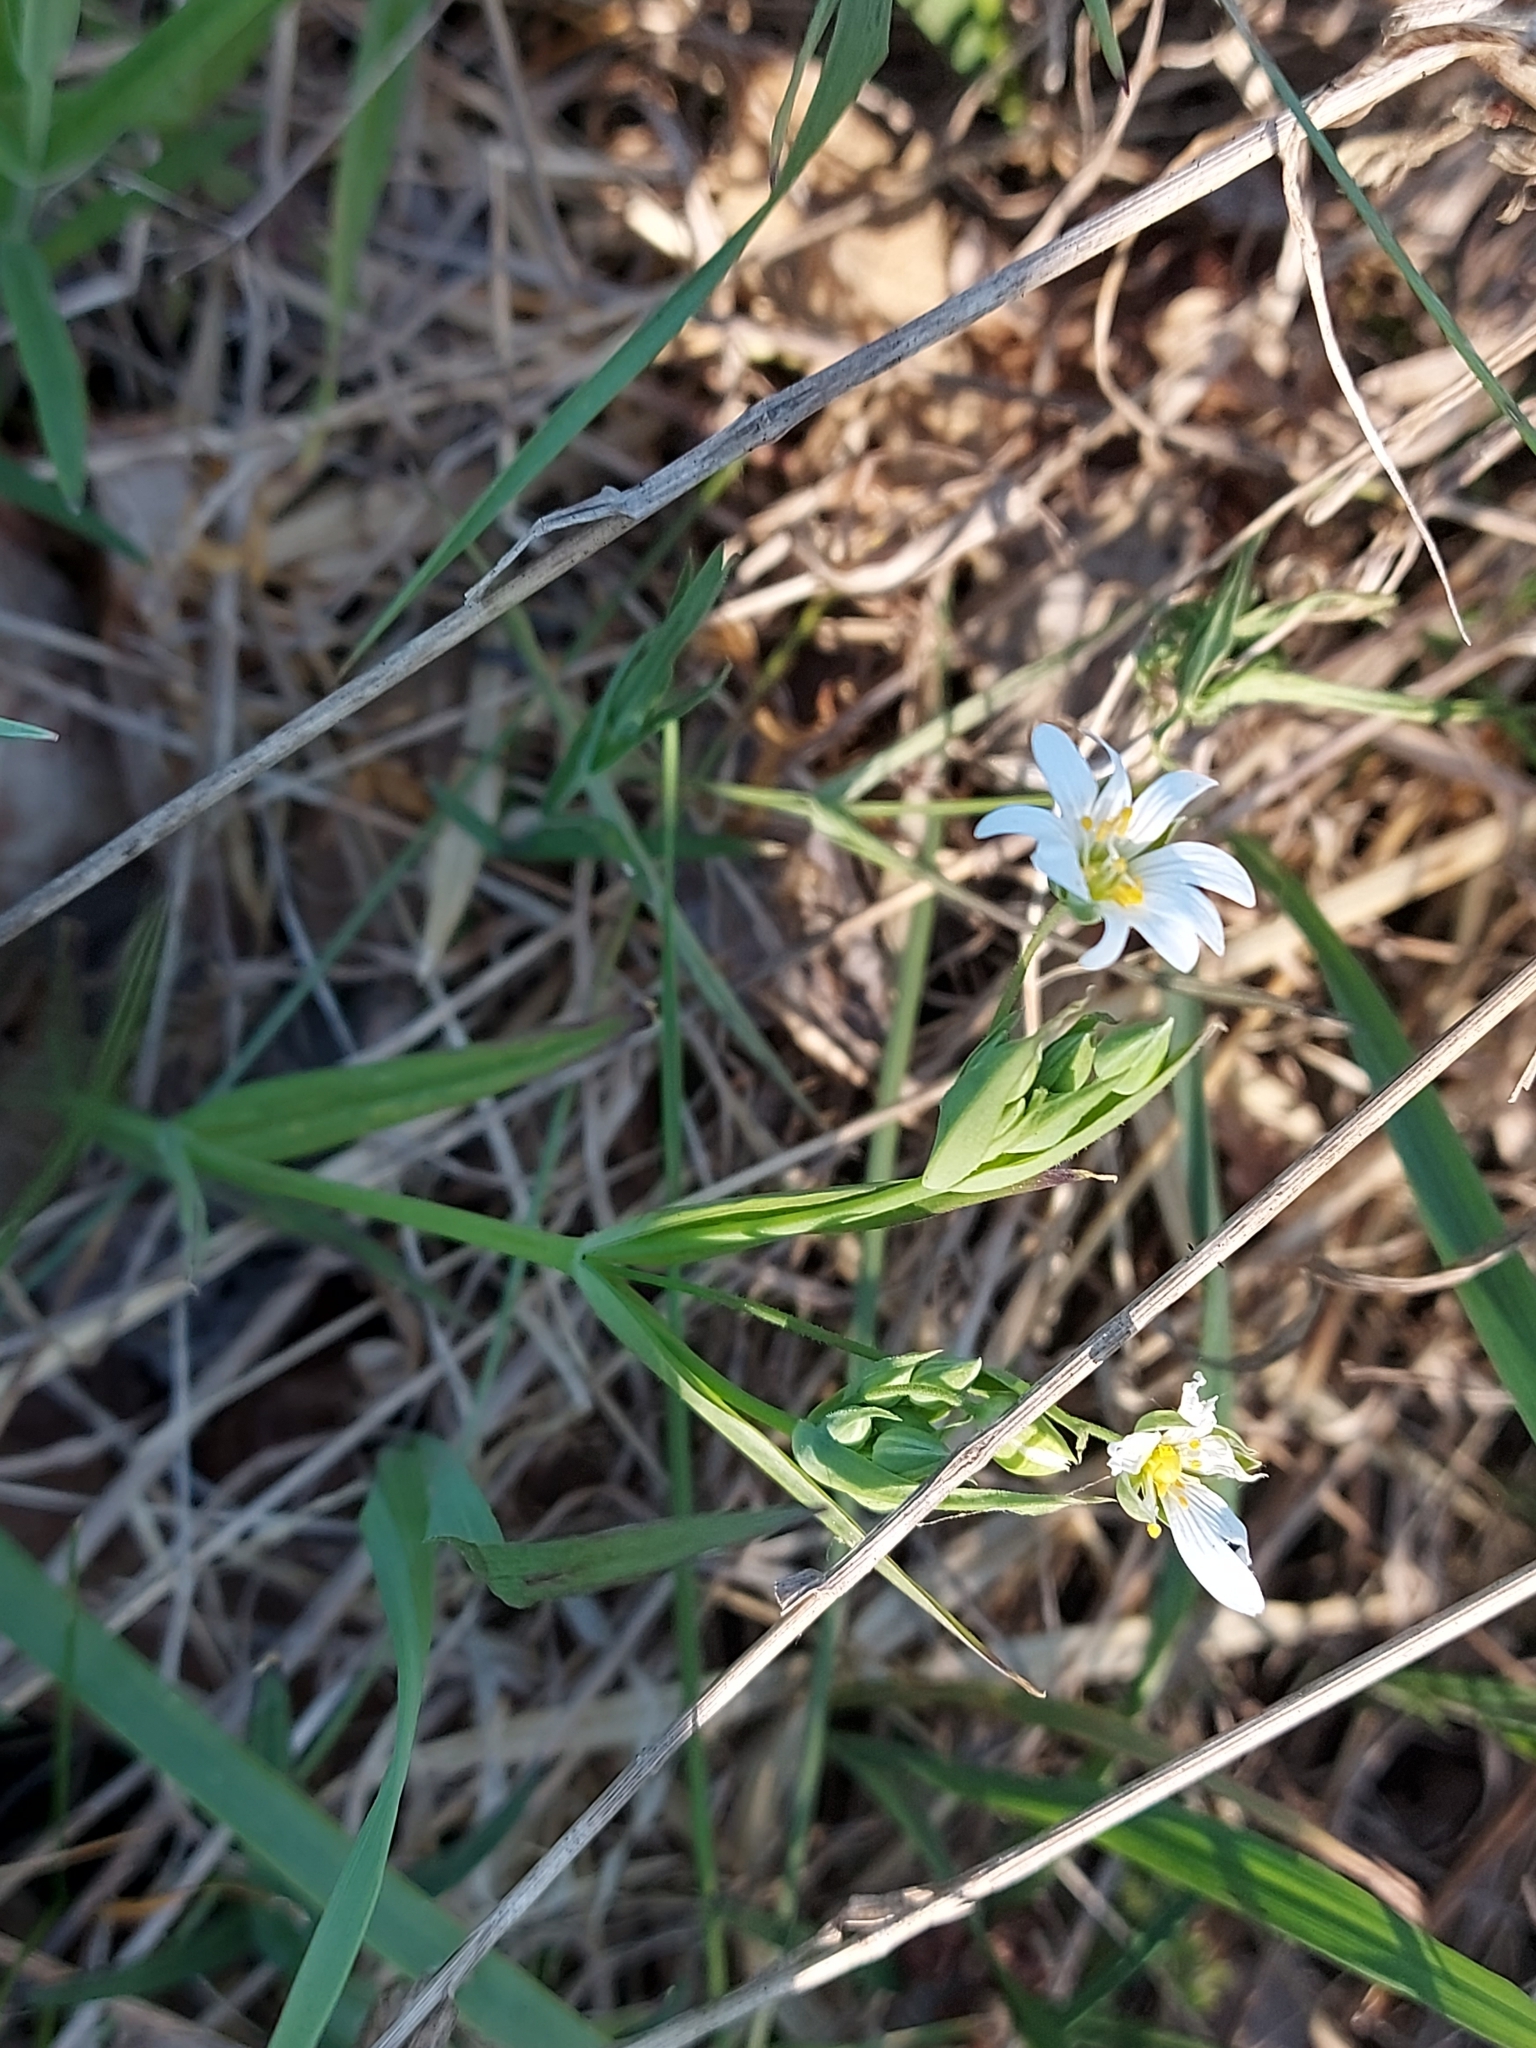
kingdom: Plantae
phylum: Tracheophyta
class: Magnoliopsida
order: Caryophyllales
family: Caryophyllaceae
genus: Rabelera
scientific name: Rabelera holostea
